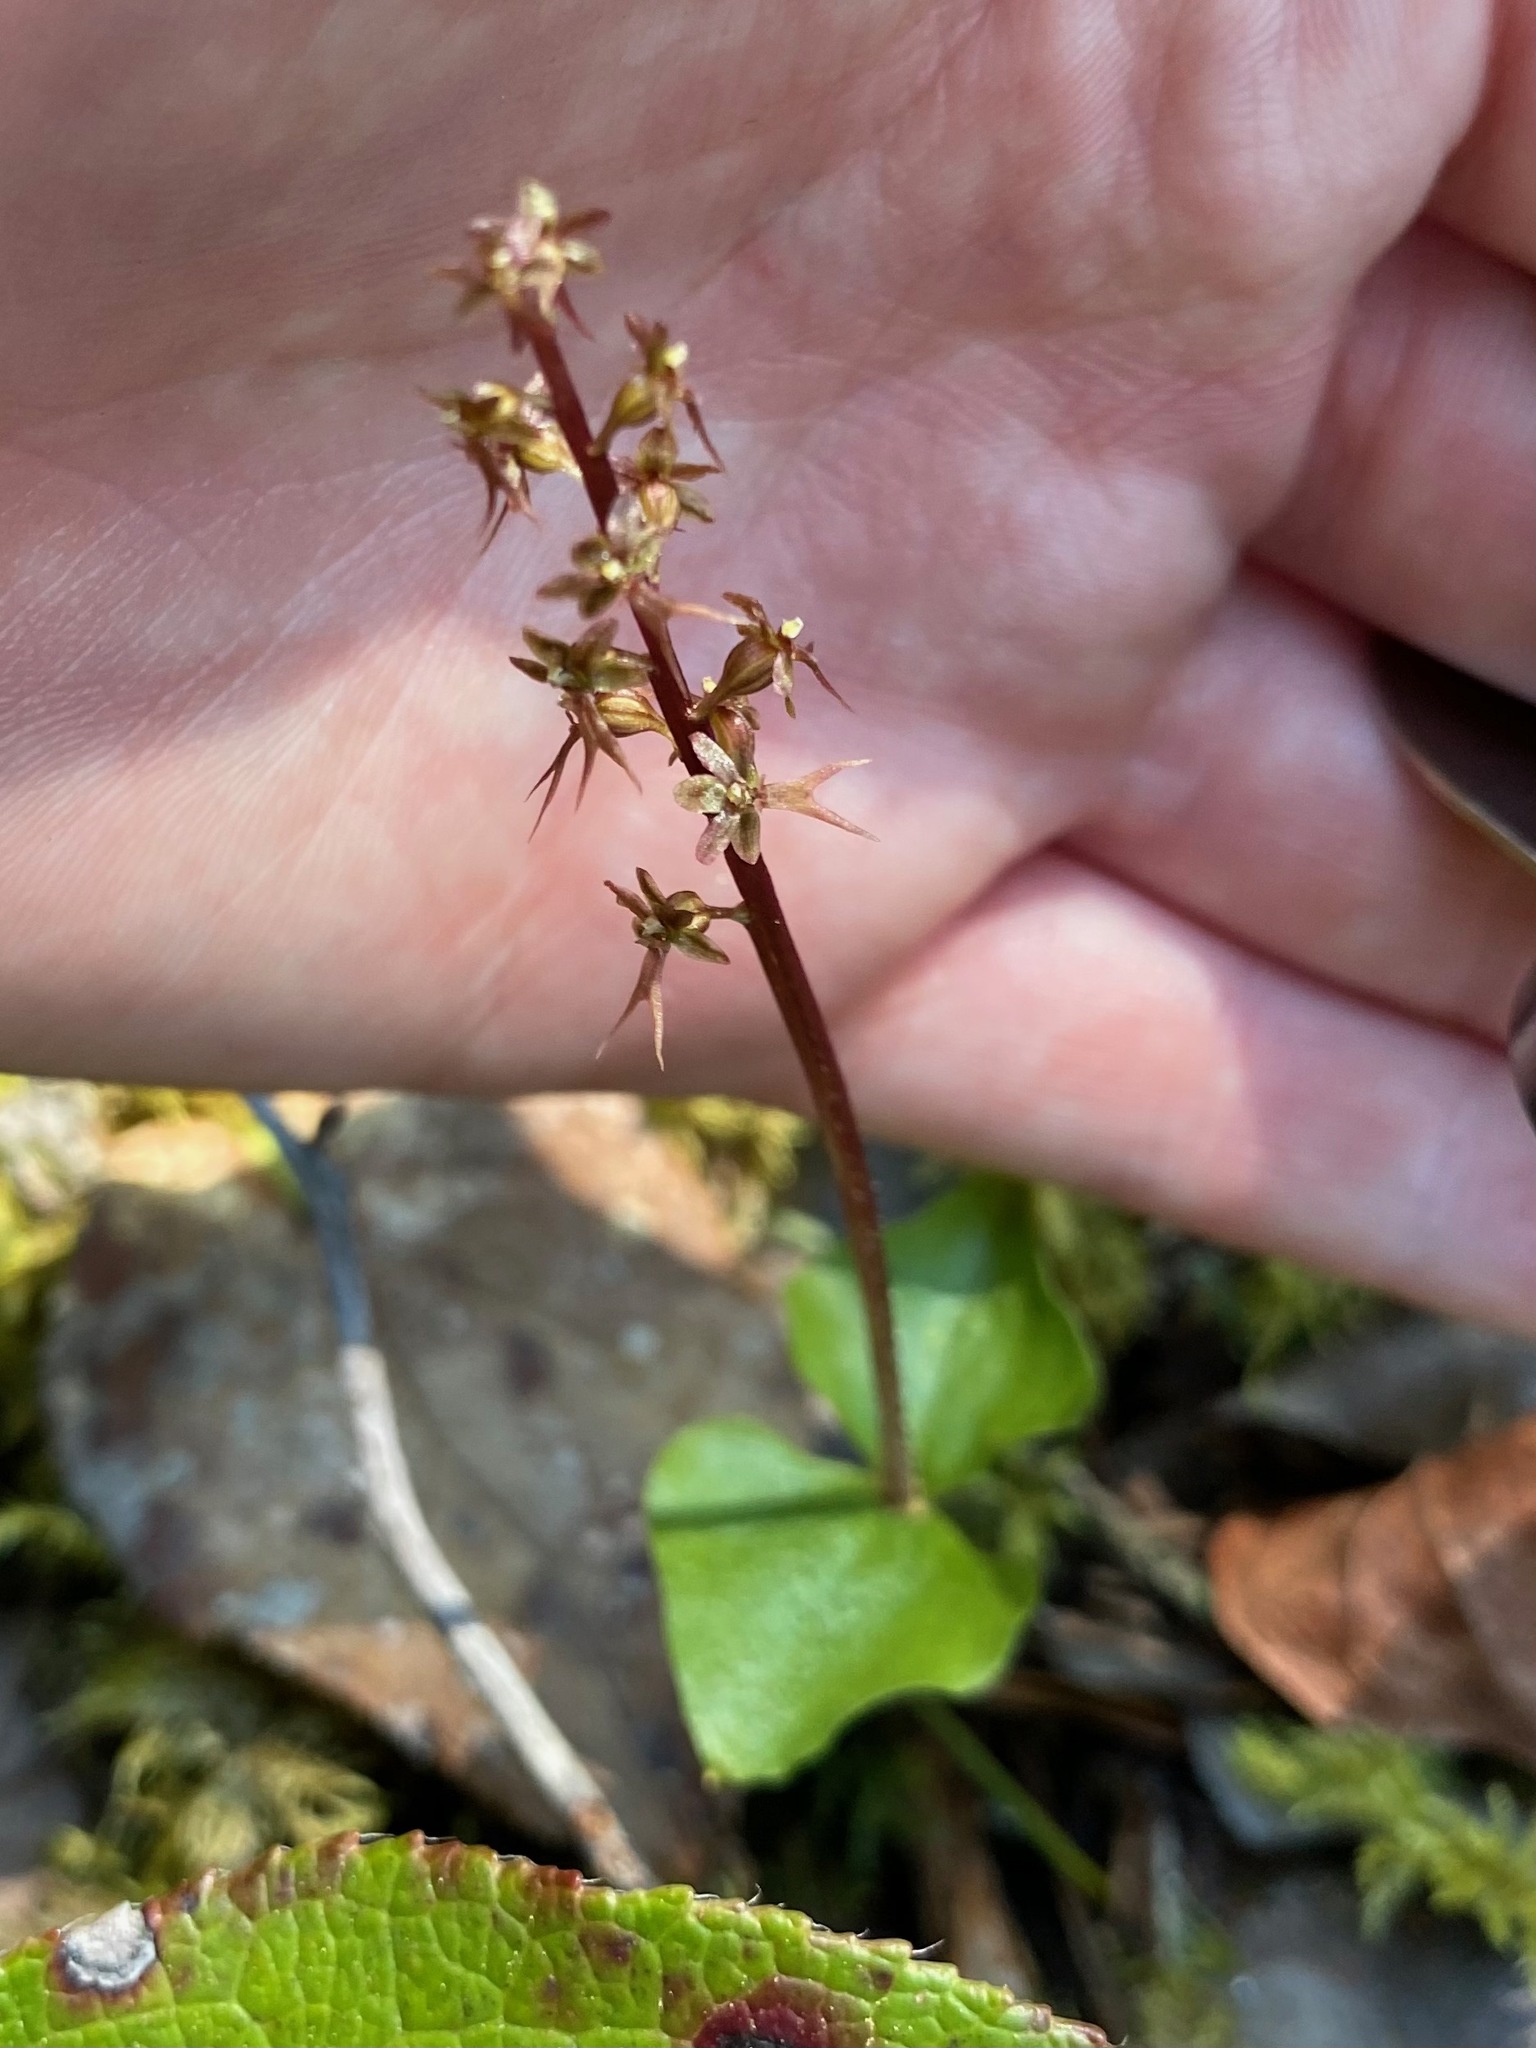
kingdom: Plantae
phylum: Tracheophyta
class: Liliopsida
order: Asparagales
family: Orchidaceae
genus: Neottia
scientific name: Neottia cordata
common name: Lesser twayblade
